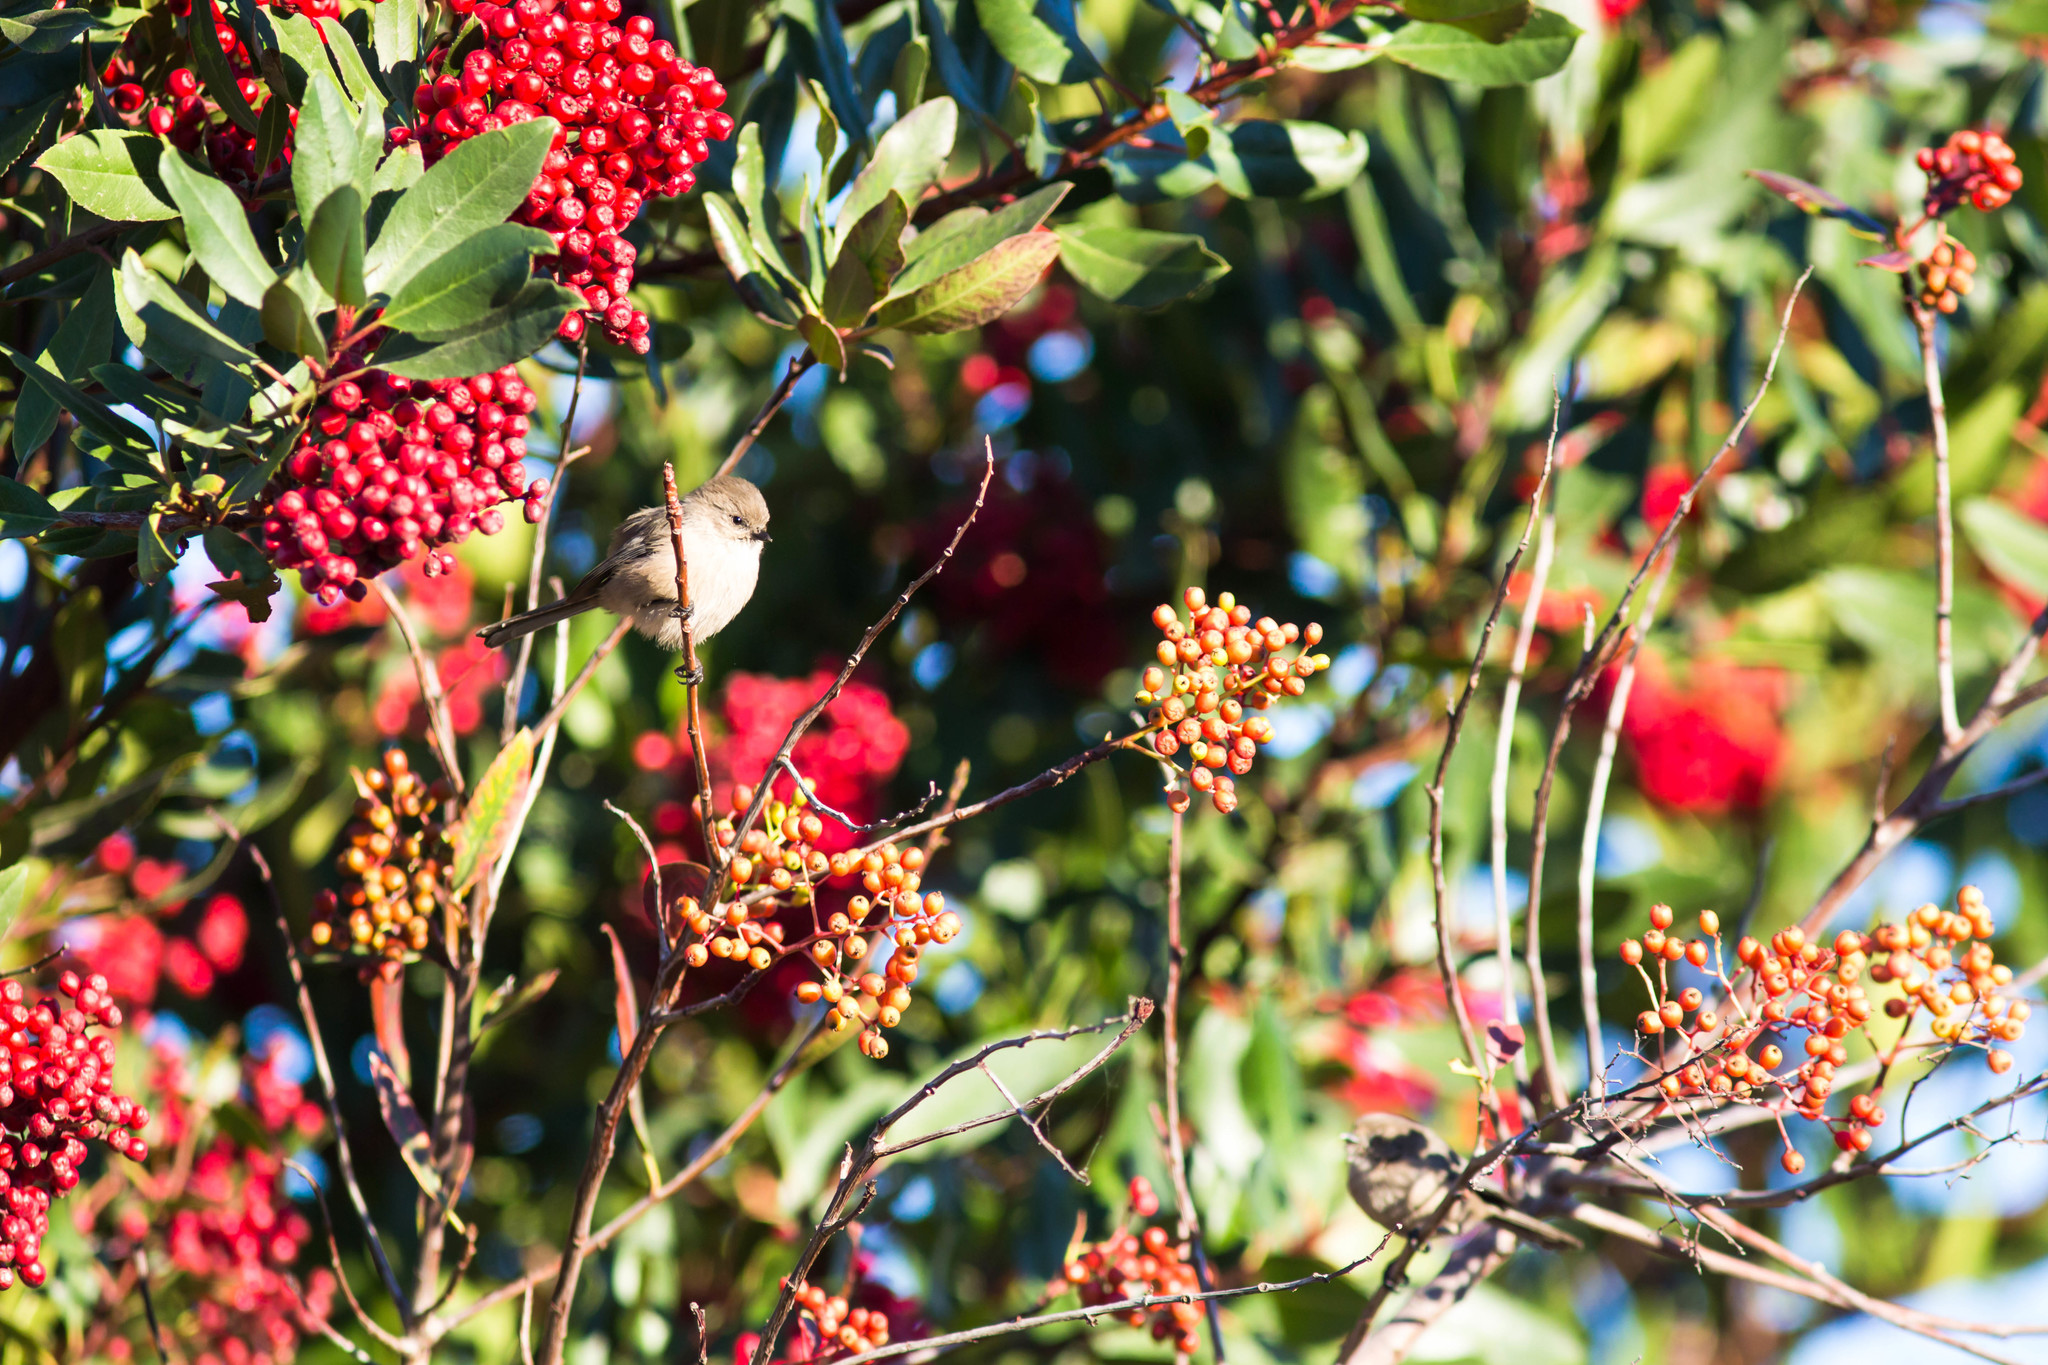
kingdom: Animalia
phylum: Chordata
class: Aves
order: Passeriformes
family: Aegithalidae
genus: Psaltriparus
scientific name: Psaltriparus minimus
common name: American bushtit
